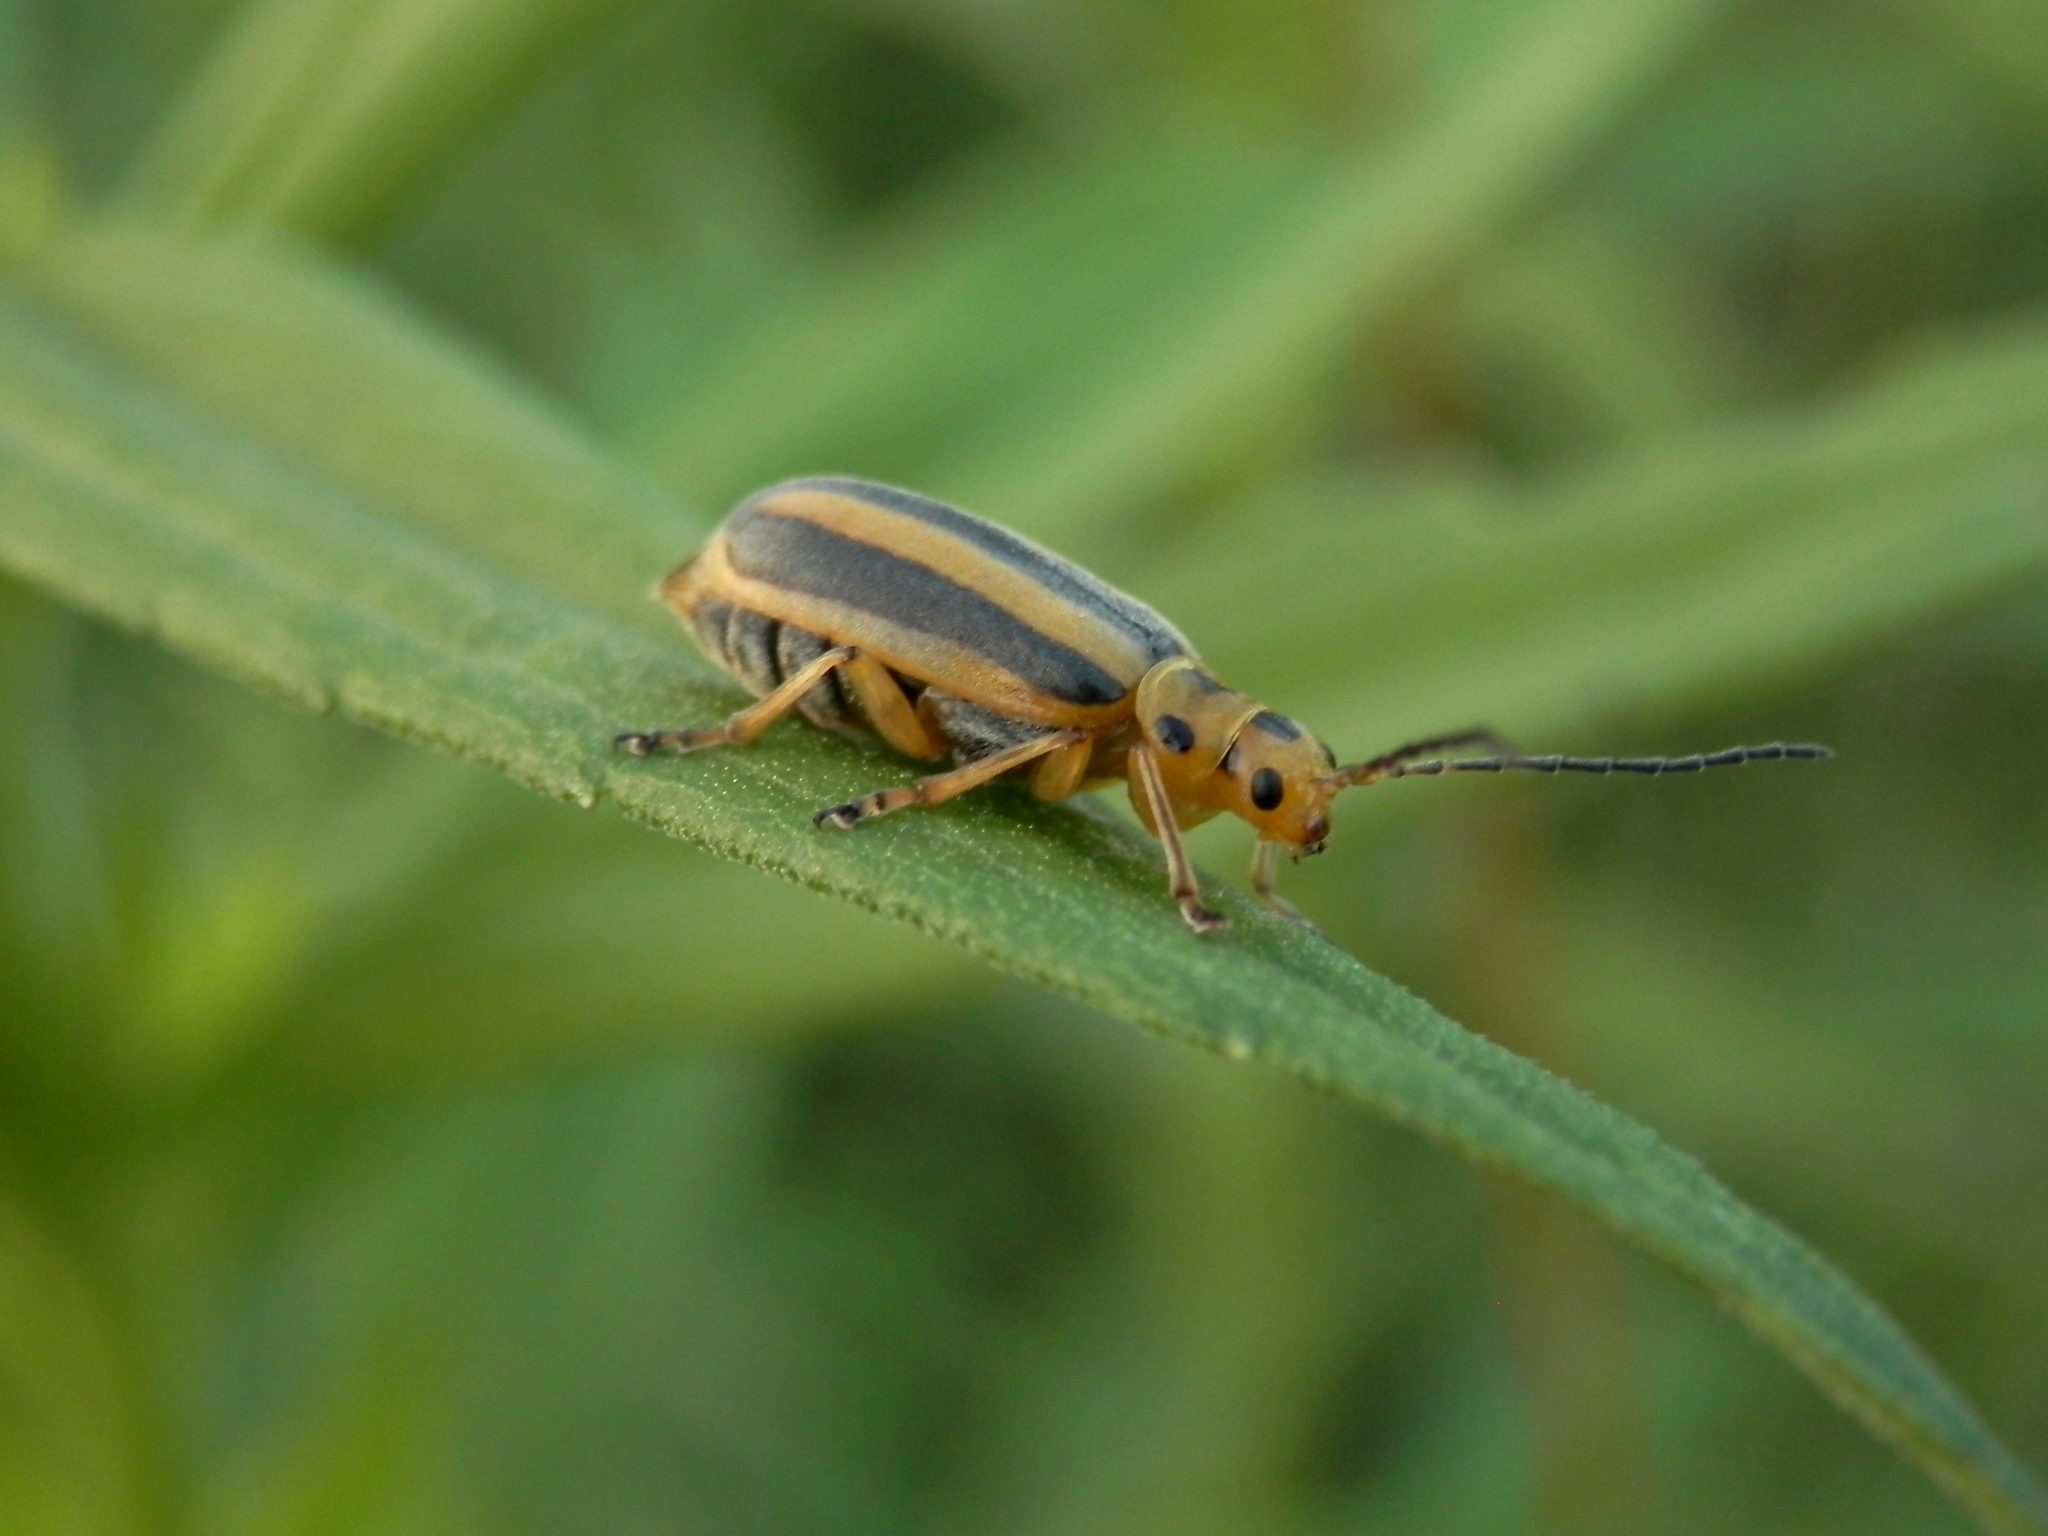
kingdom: Animalia
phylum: Arthropoda
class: Insecta
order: Coleoptera
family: Chrysomelidae
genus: Trirhabda
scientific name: Trirhabda borealis
